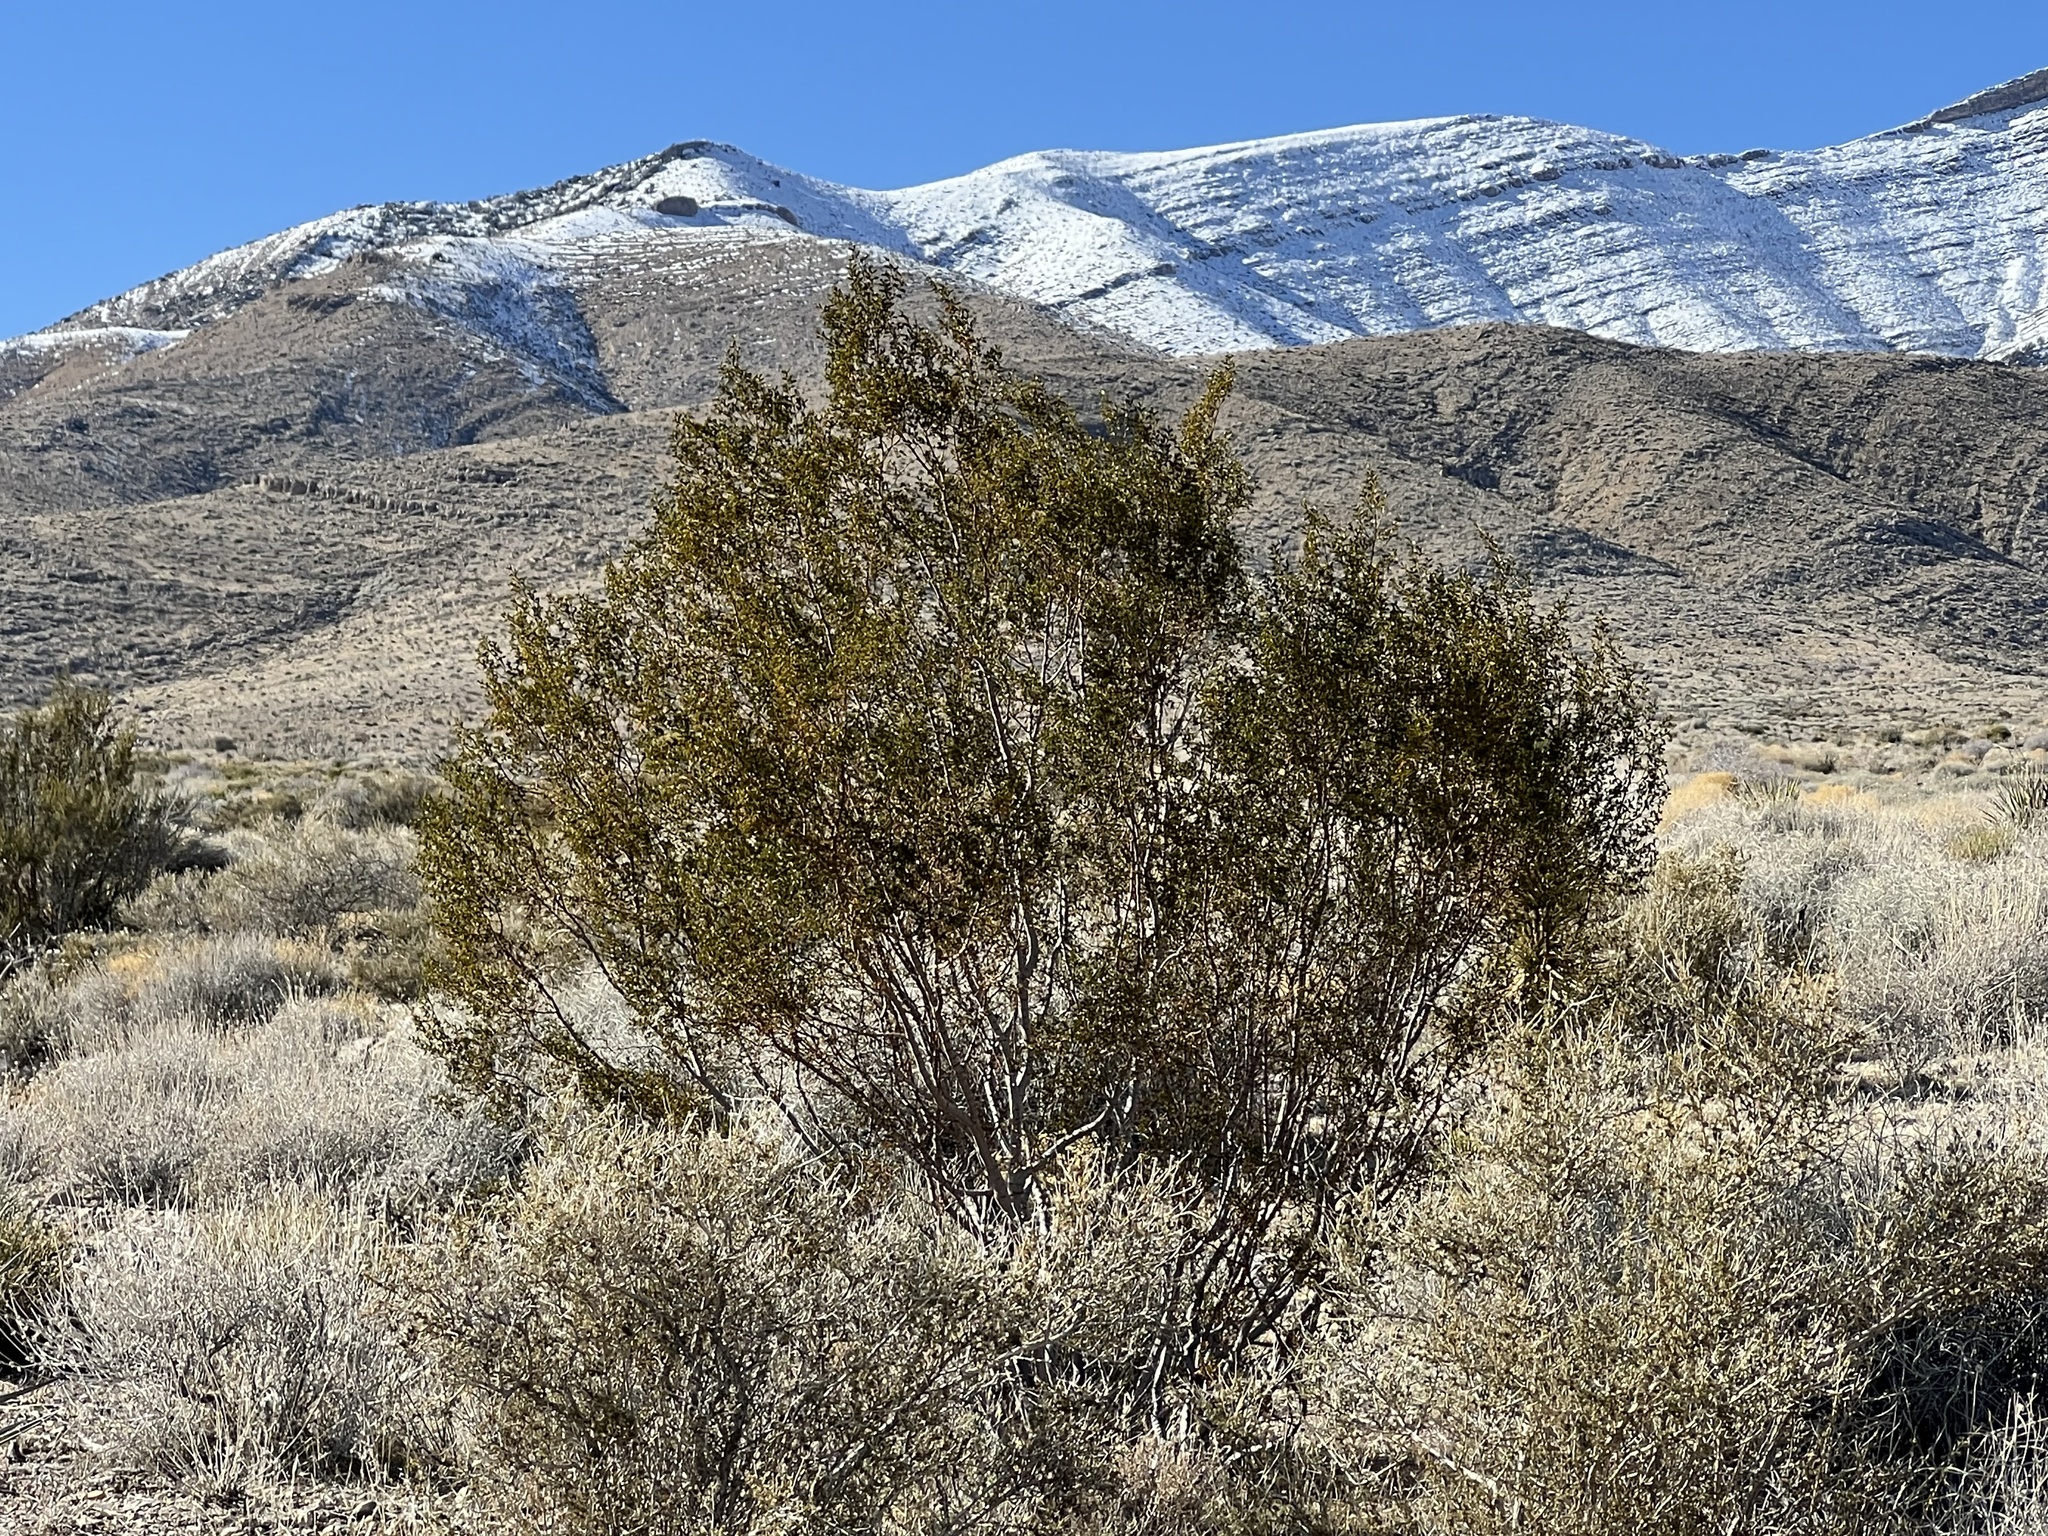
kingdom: Plantae
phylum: Tracheophyta
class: Magnoliopsida
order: Zygophyllales
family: Zygophyllaceae
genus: Larrea
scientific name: Larrea tridentata
